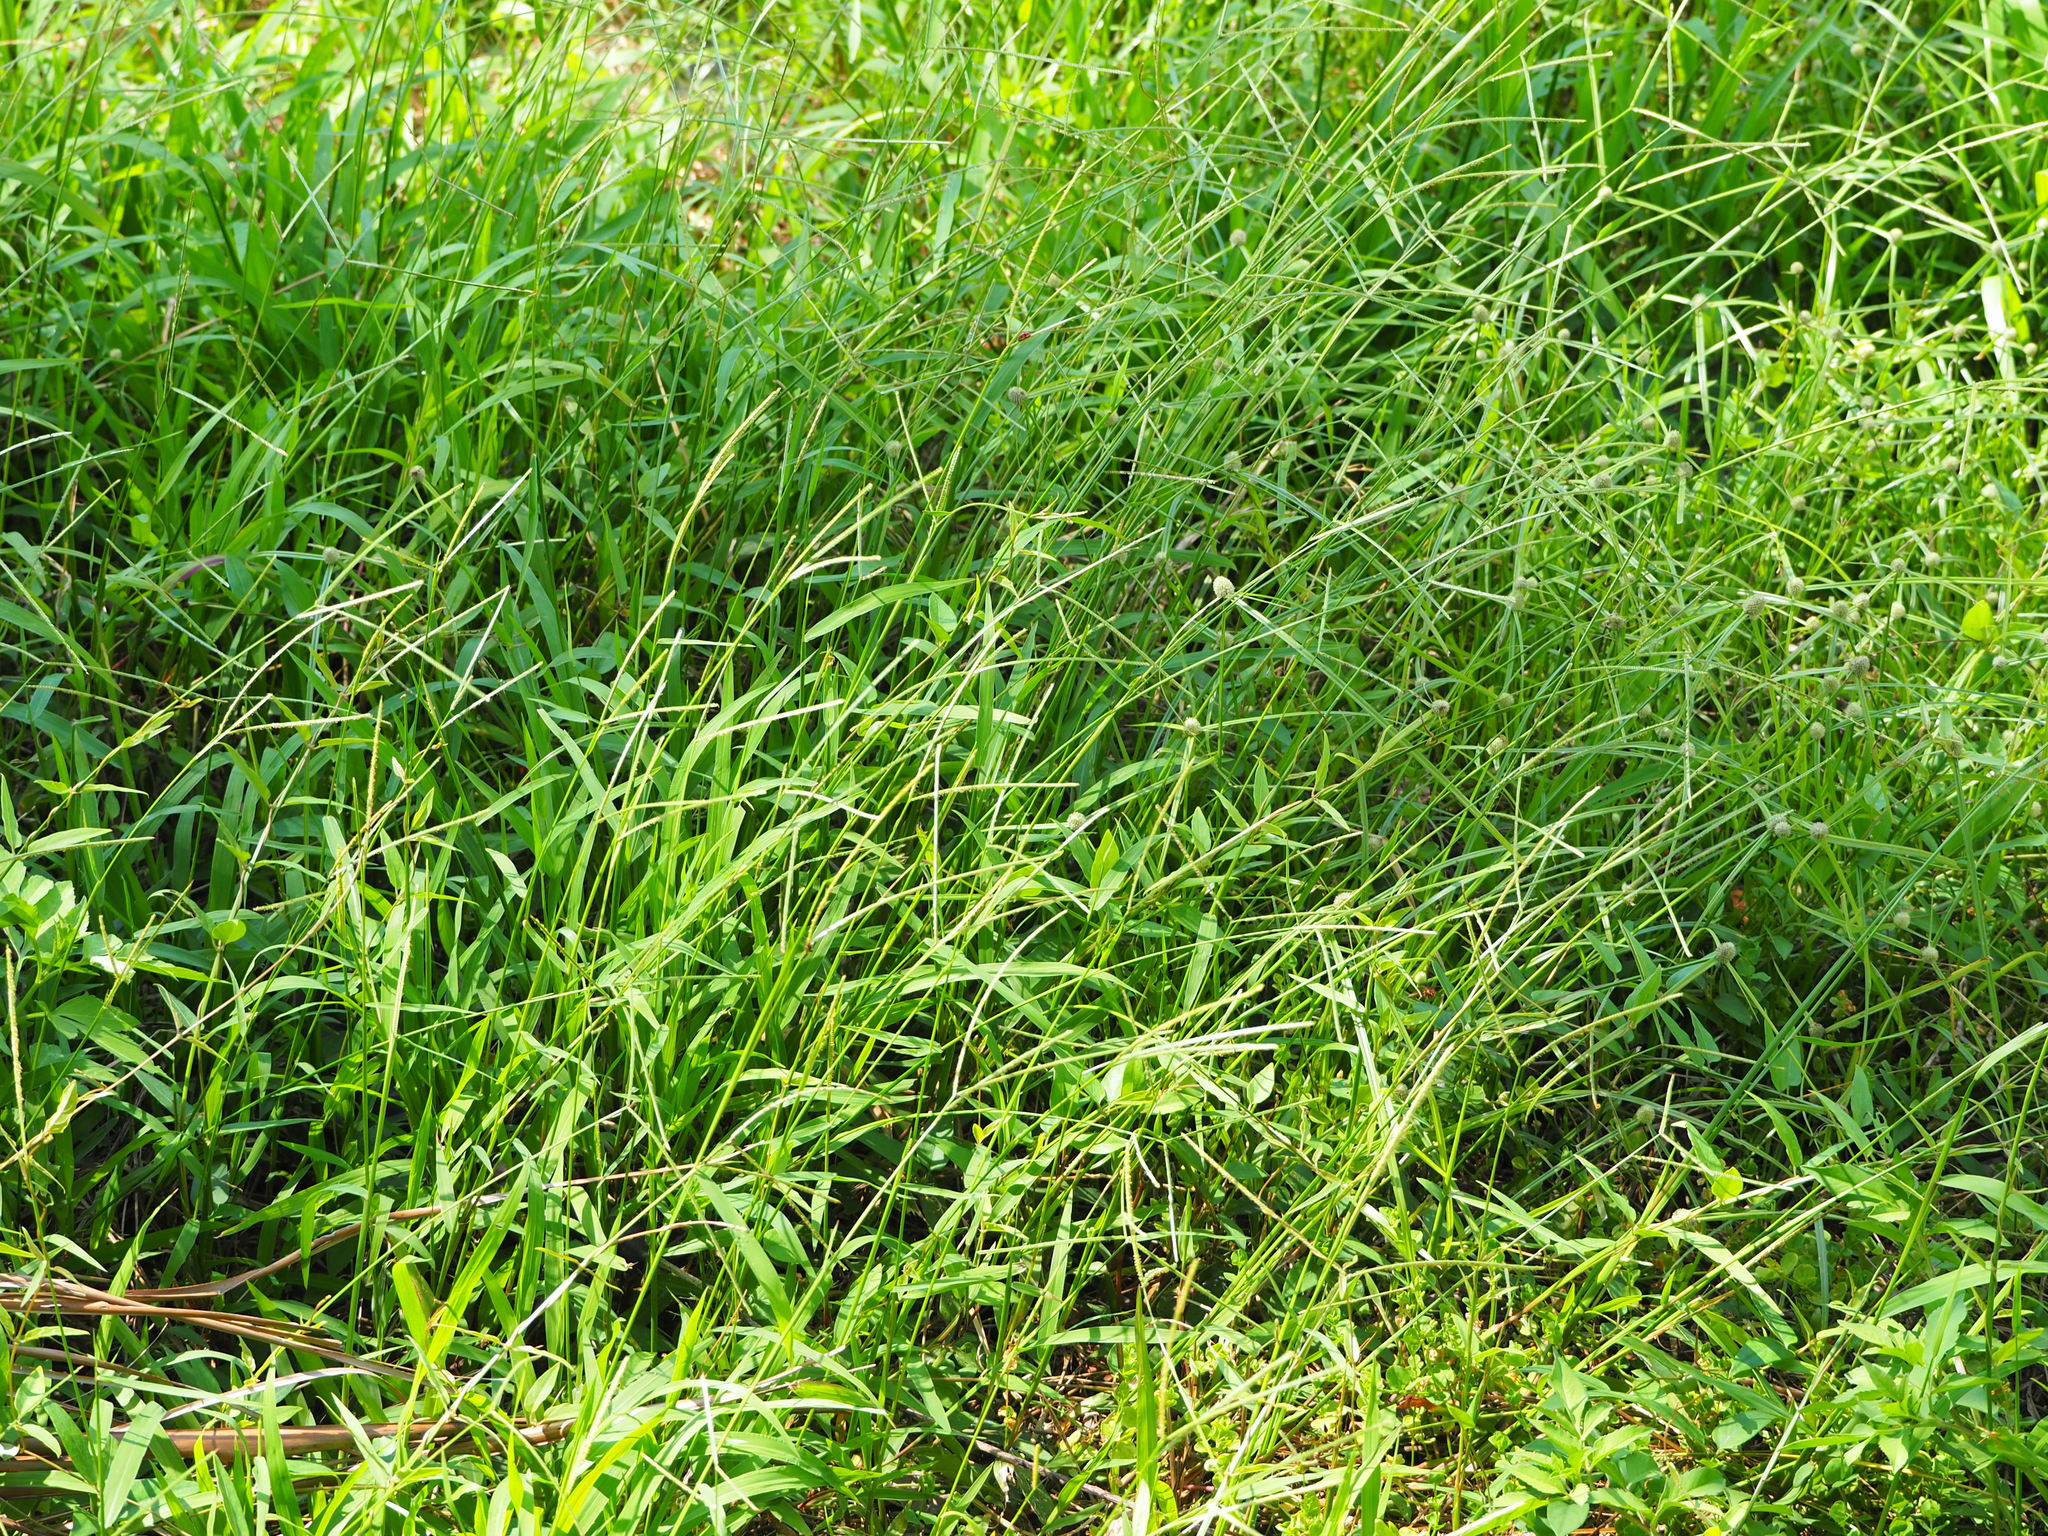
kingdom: Plantae
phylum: Tracheophyta
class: Liliopsida
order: Poales
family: Poaceae
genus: Paspalum
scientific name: Paspalum conjugatum
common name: Hilograss
